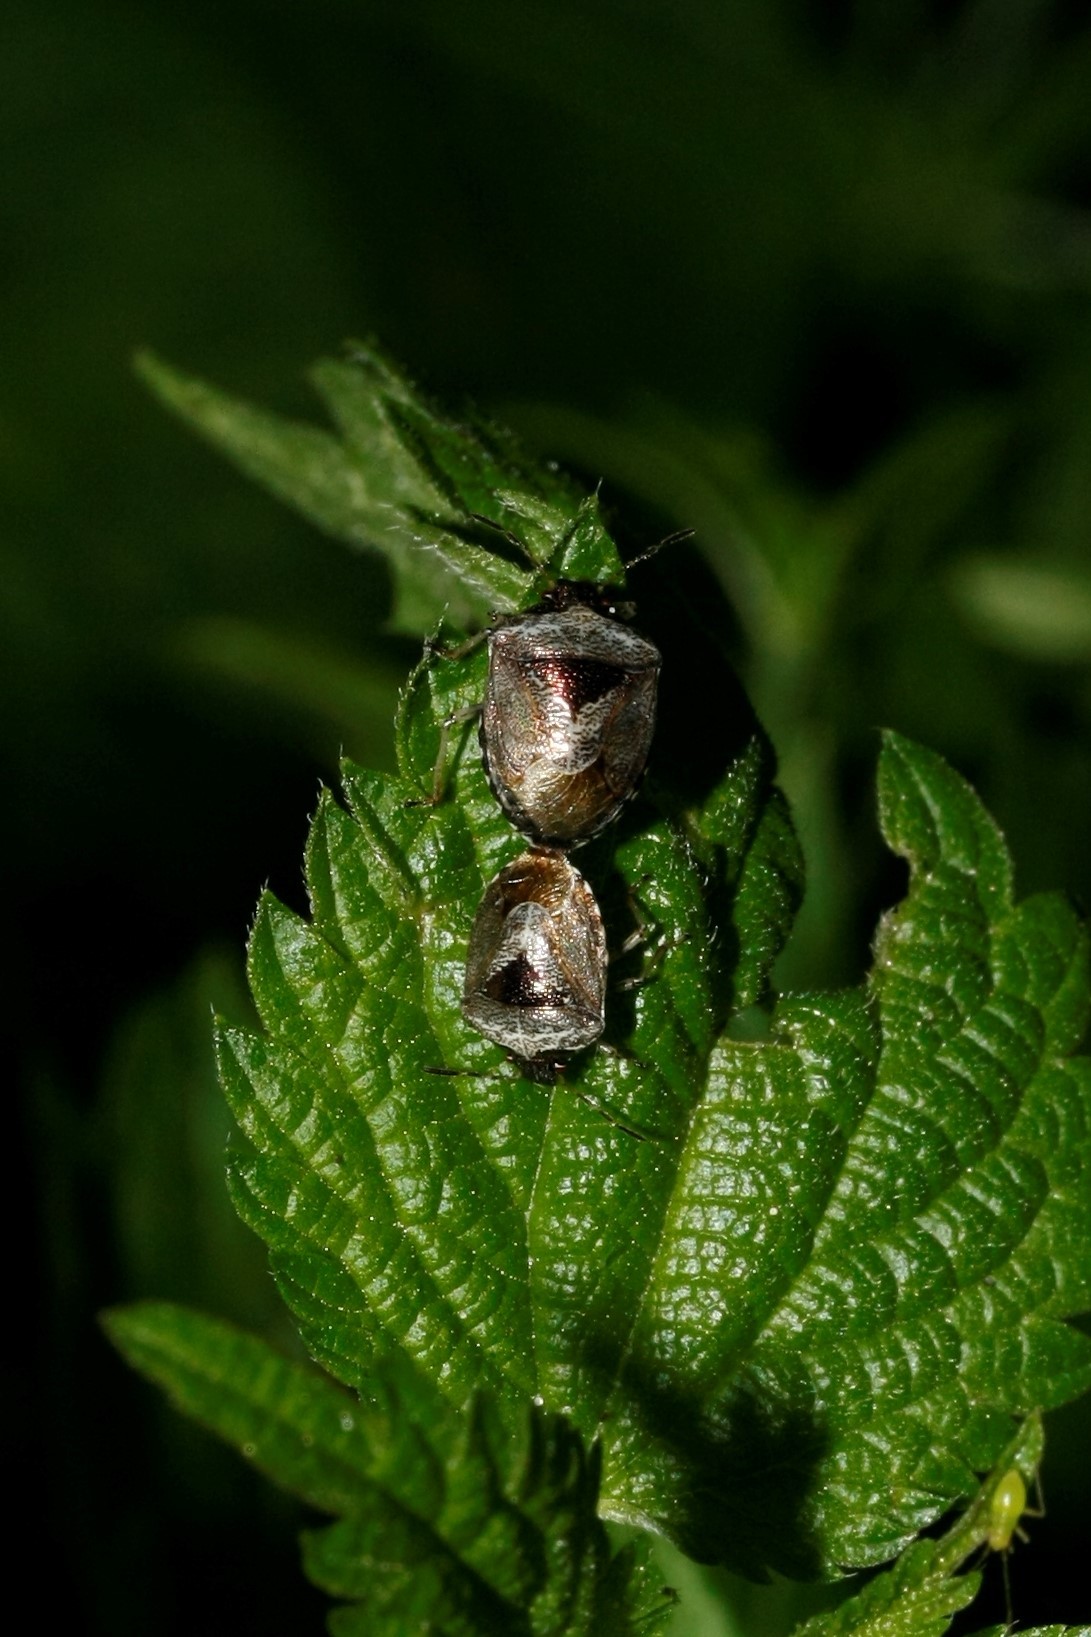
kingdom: Animalia
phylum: Arthropoda
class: Insecta
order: Hemiptera
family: Pentatomidae
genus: Eysarcoris
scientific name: Eysarcoris venustissimus
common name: Woundwort shieldbug
